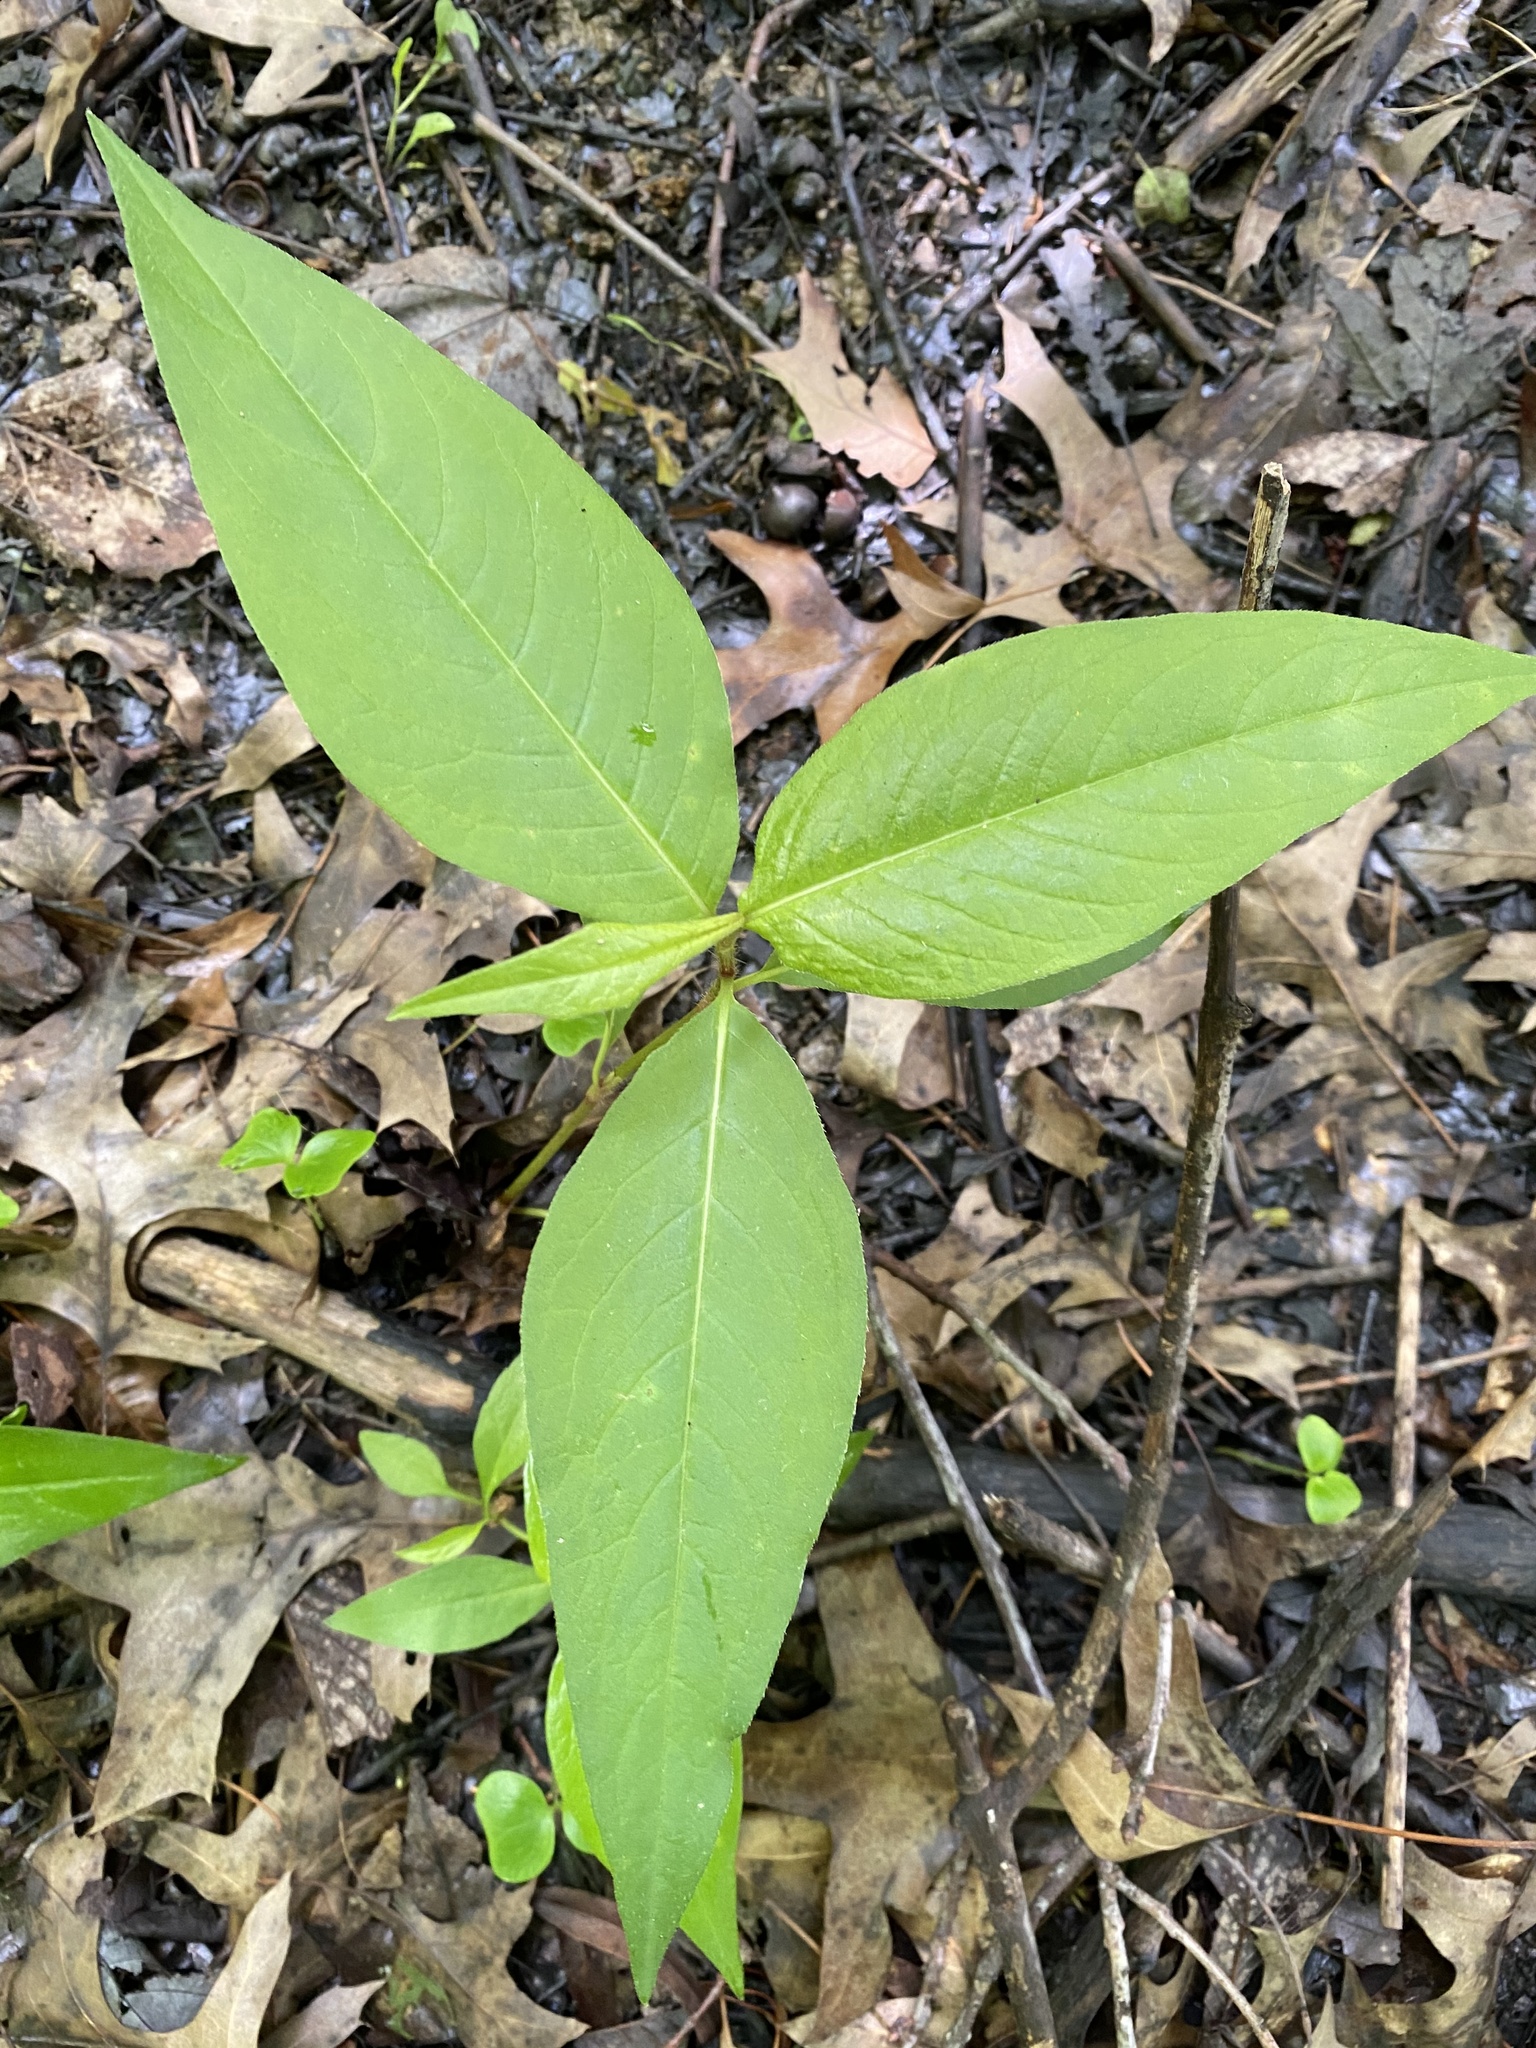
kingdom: Plantae
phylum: Tracheophyta
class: Magnoliopsida
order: Caryophyllales
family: Polygonaceae
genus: Persicaria
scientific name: Persicaria virginiana
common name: Jumpseed
